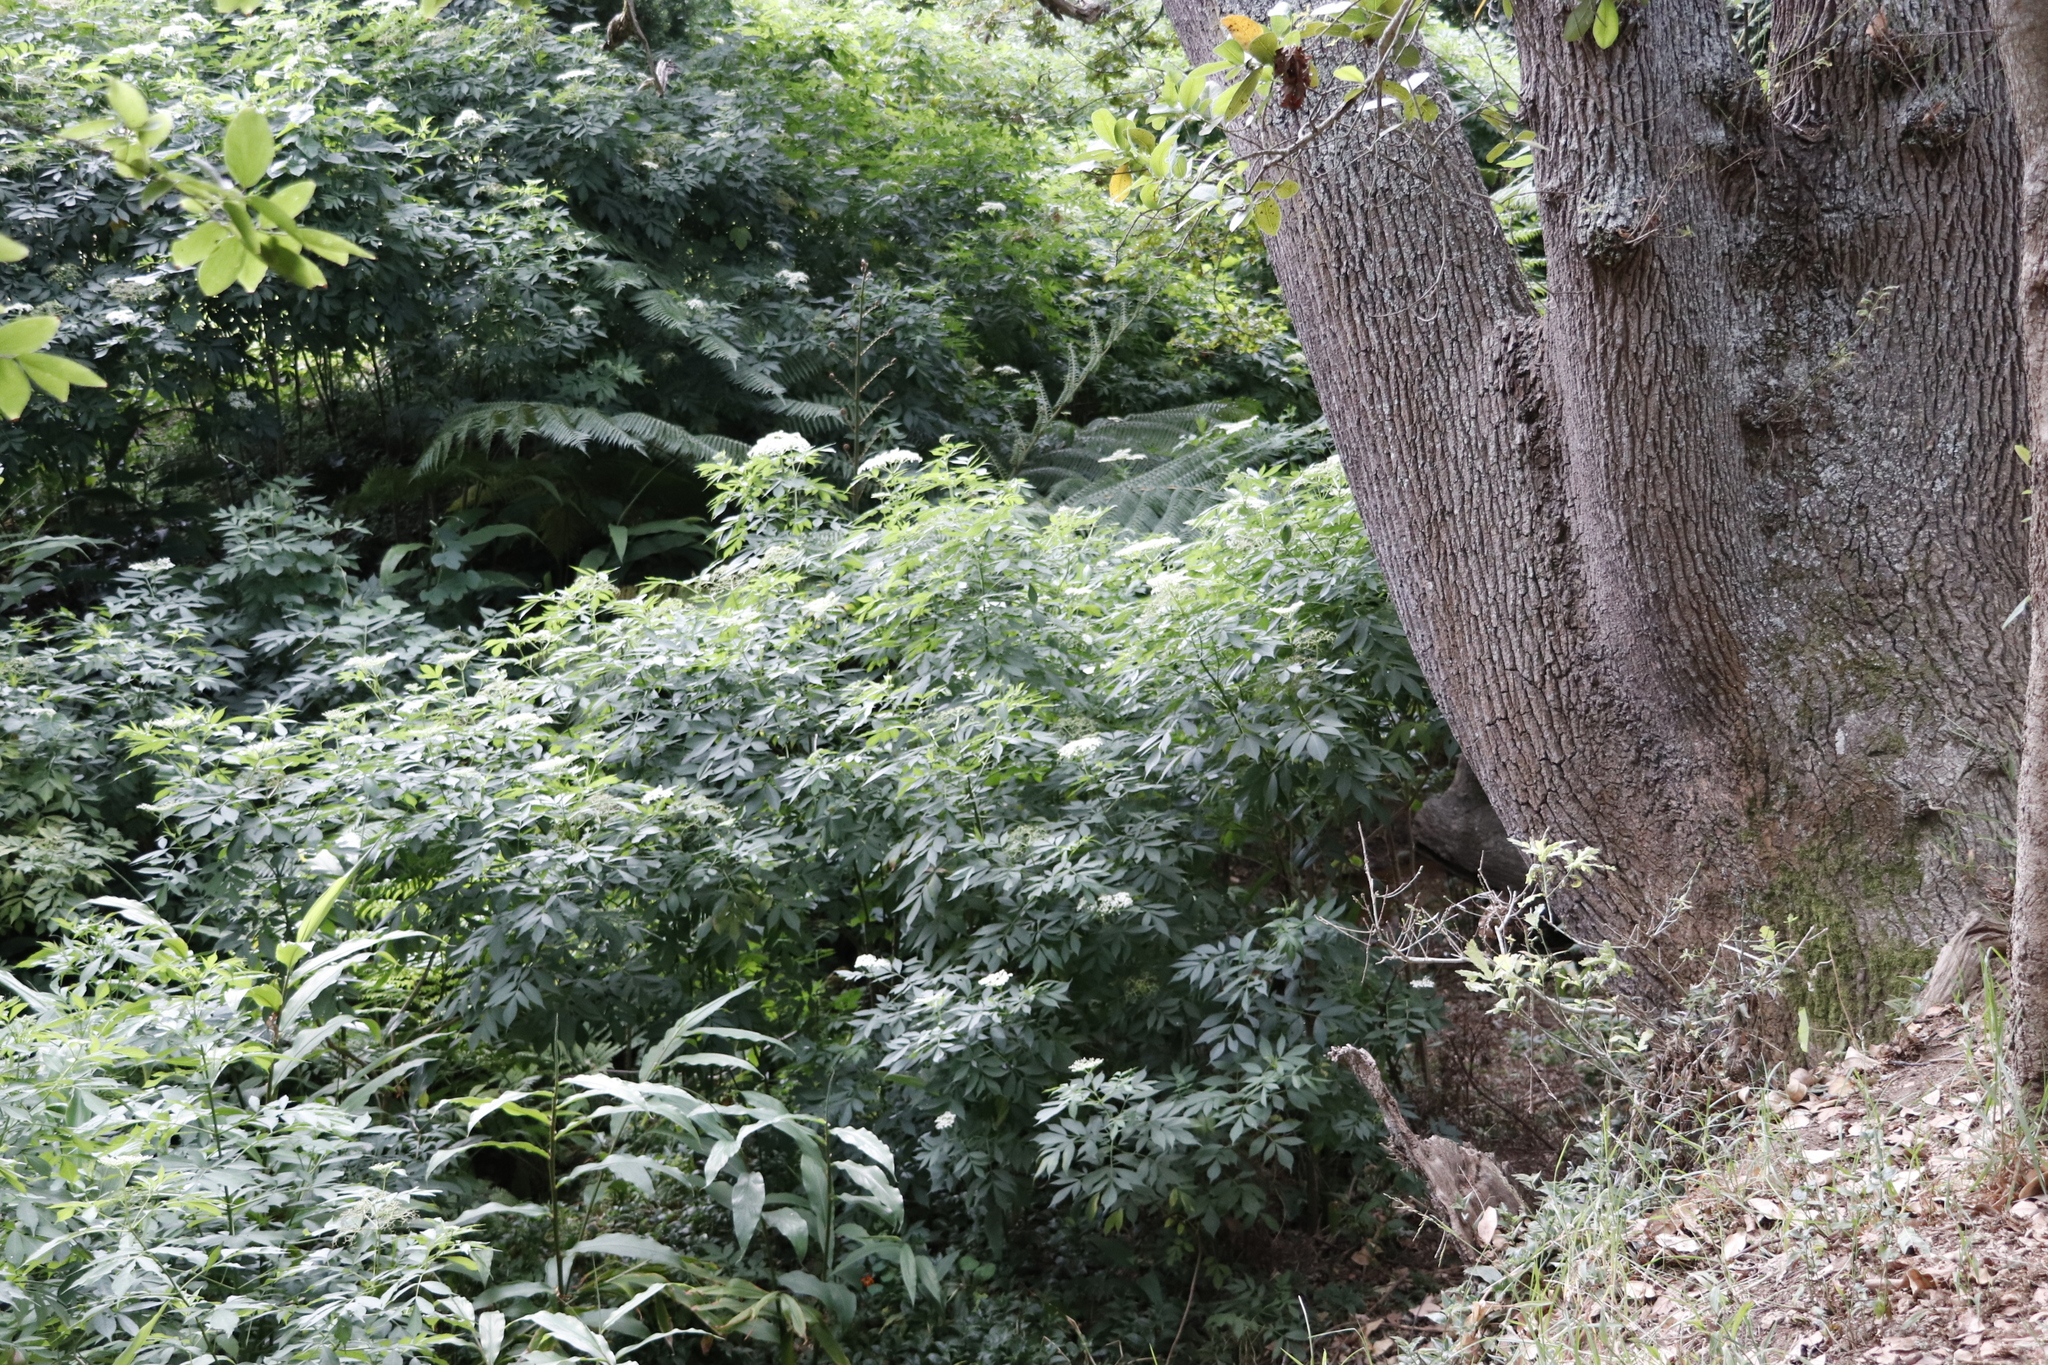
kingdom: Plantae
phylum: Tracheophyta
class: Magnoliopsida
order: Dipsacales
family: Viburnaceae
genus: Sambucus
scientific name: Sambucus nigra
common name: Elder
